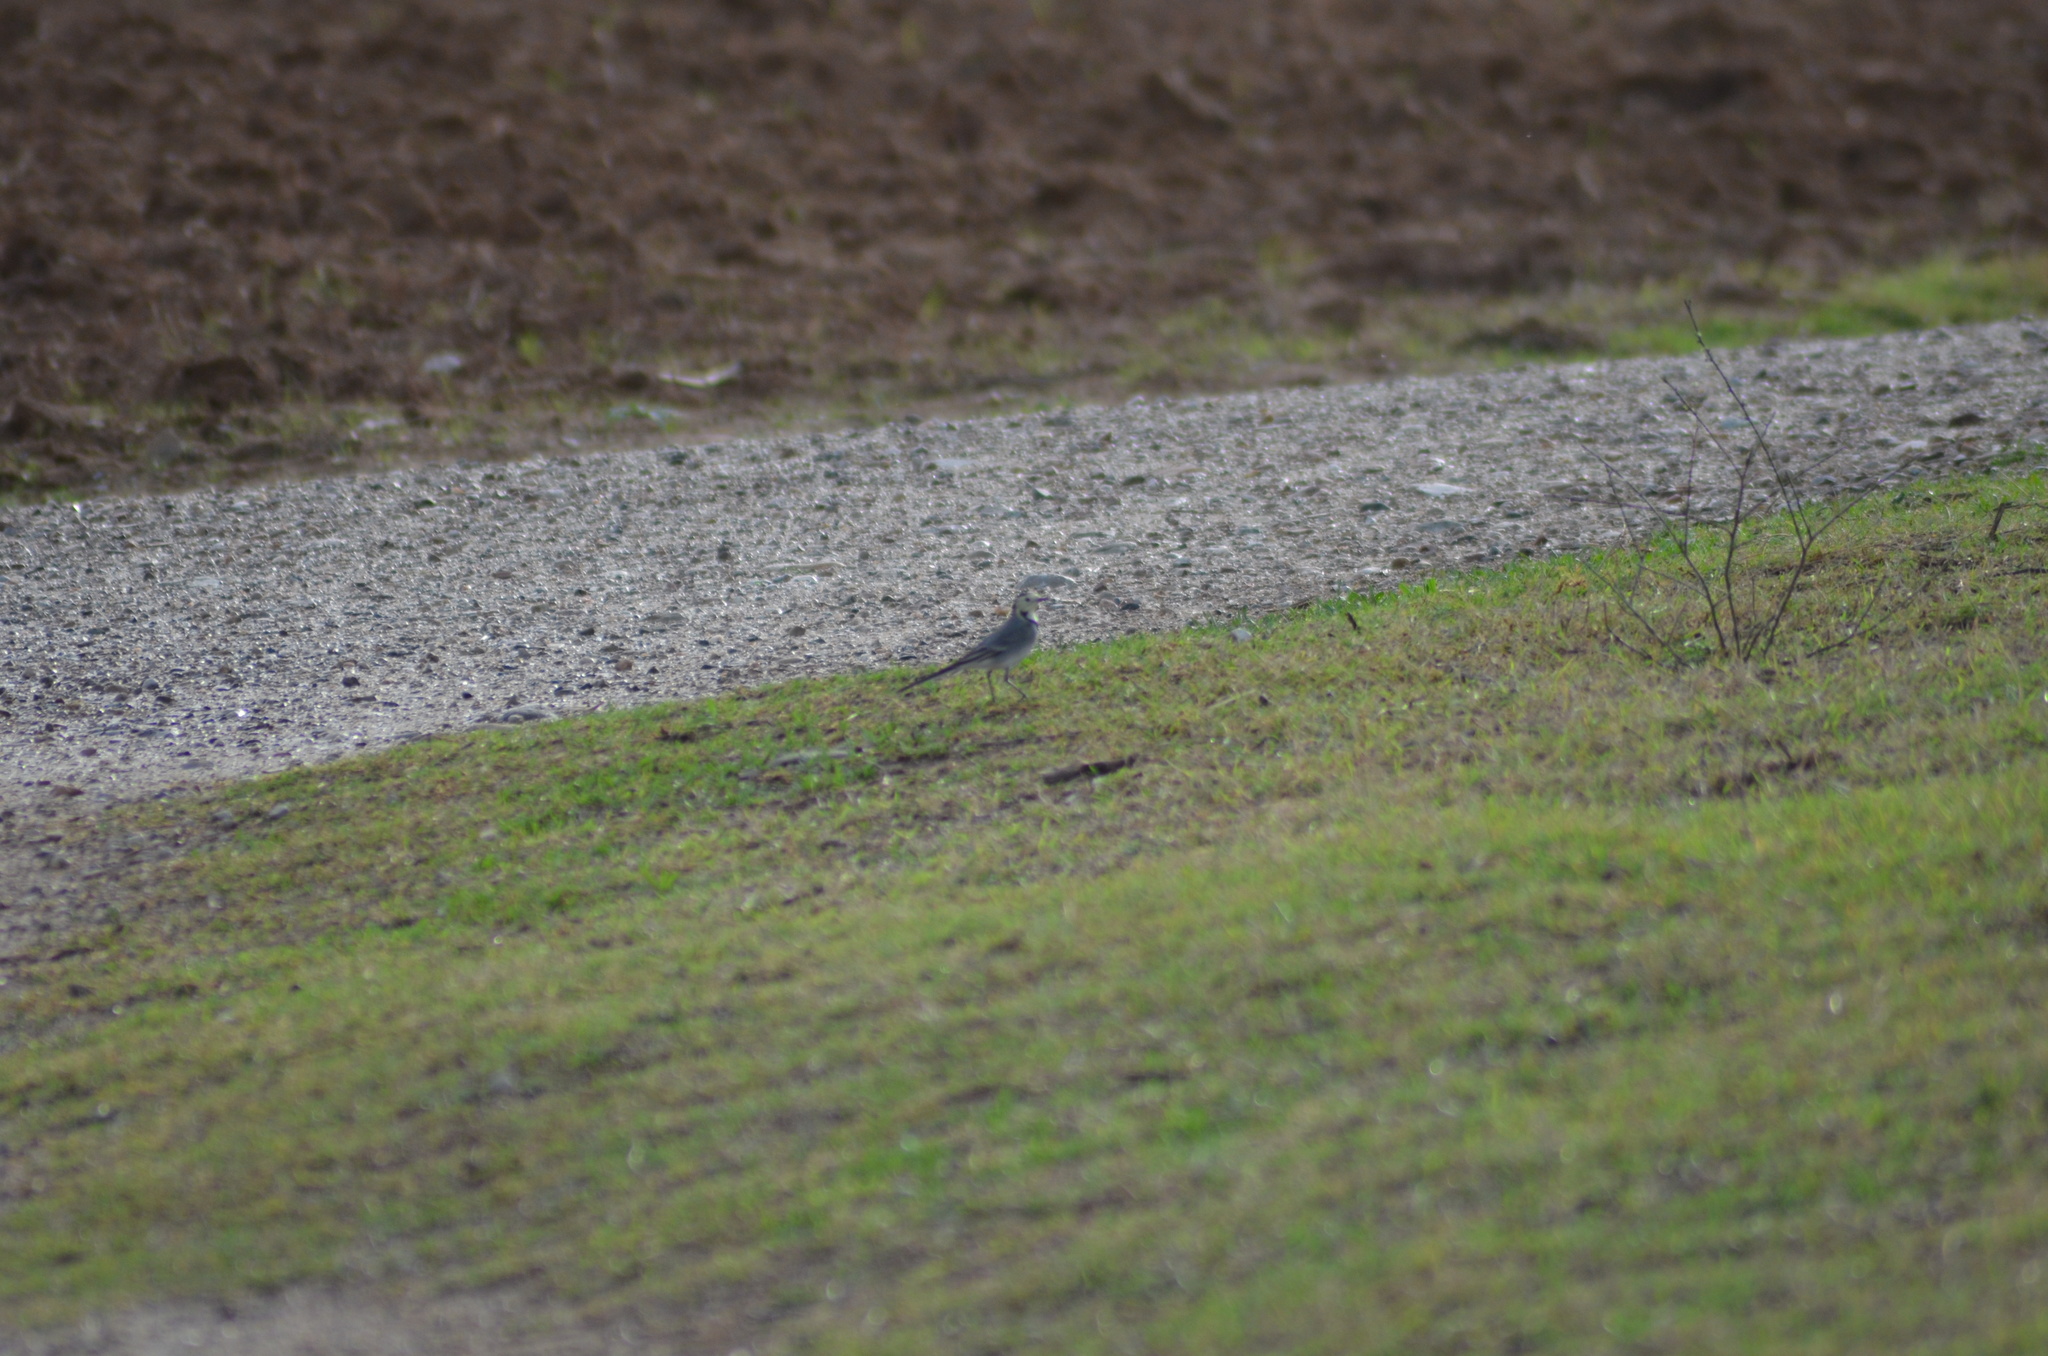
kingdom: Animalia
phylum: Chordata
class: Aves
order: Passeriformes
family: Motacillidae
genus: Motacilla
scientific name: Motacilla alba
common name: White wagtail
